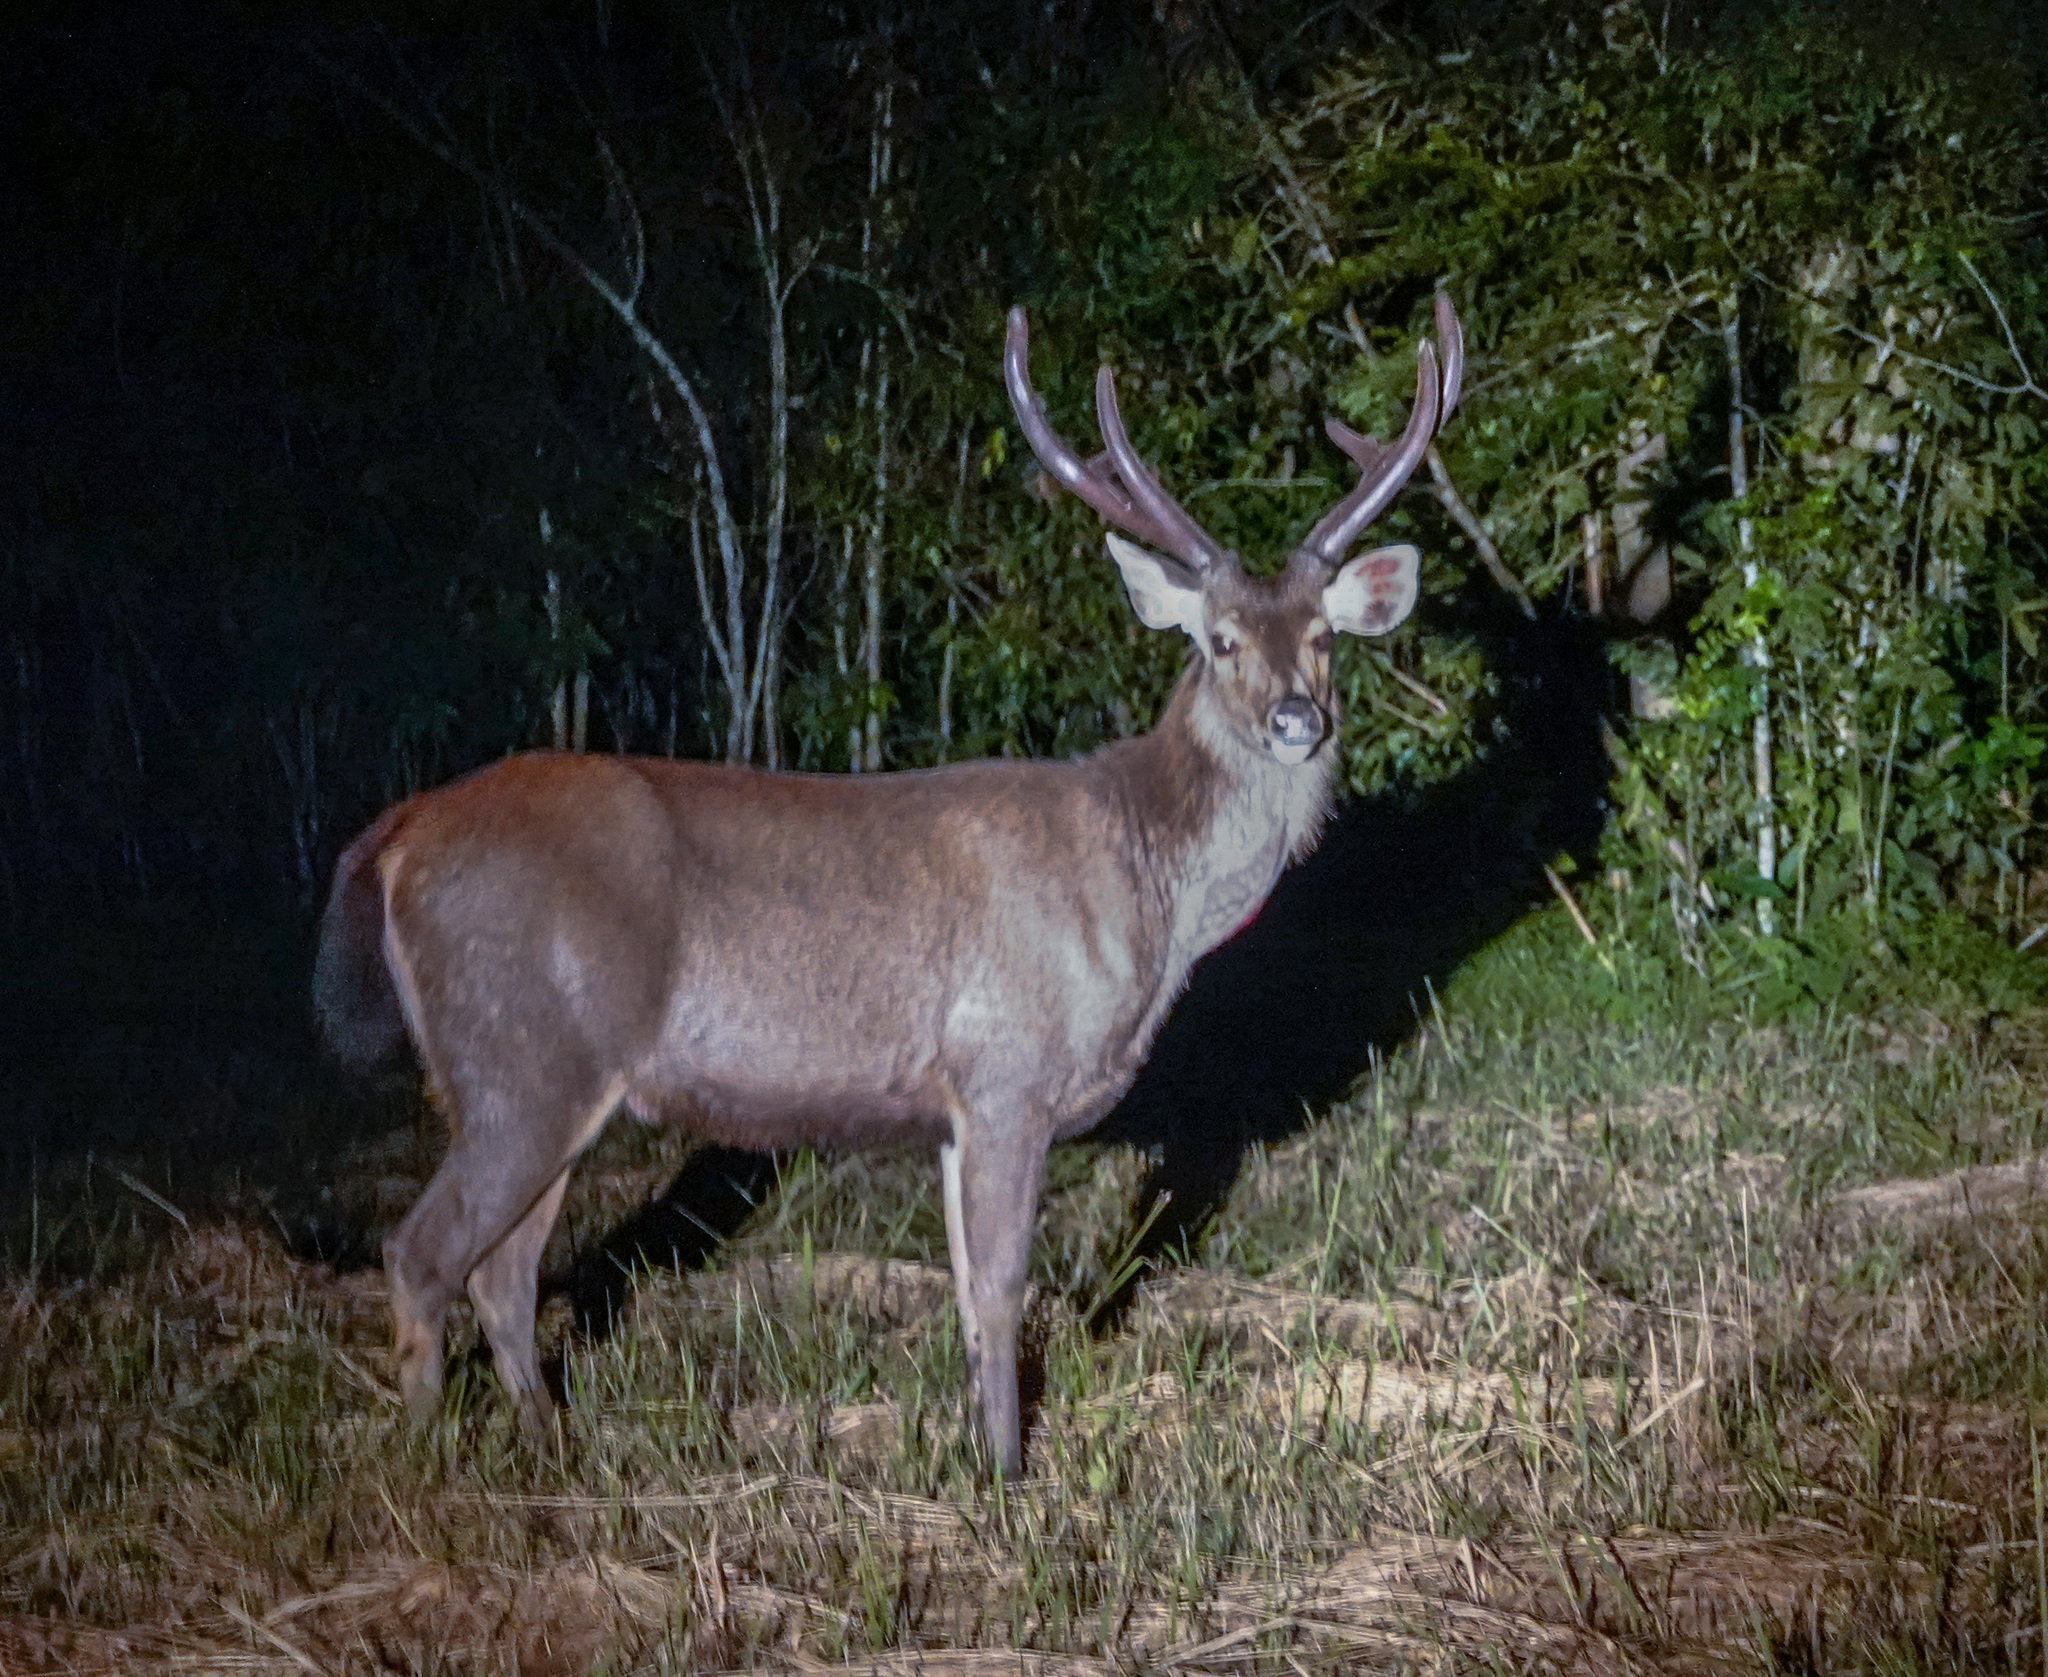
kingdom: Animalia
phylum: Chordata
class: Mammalia
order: Artiodactyla
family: Cervidae
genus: Rusa
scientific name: Rusa unicolor
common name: Sambar
